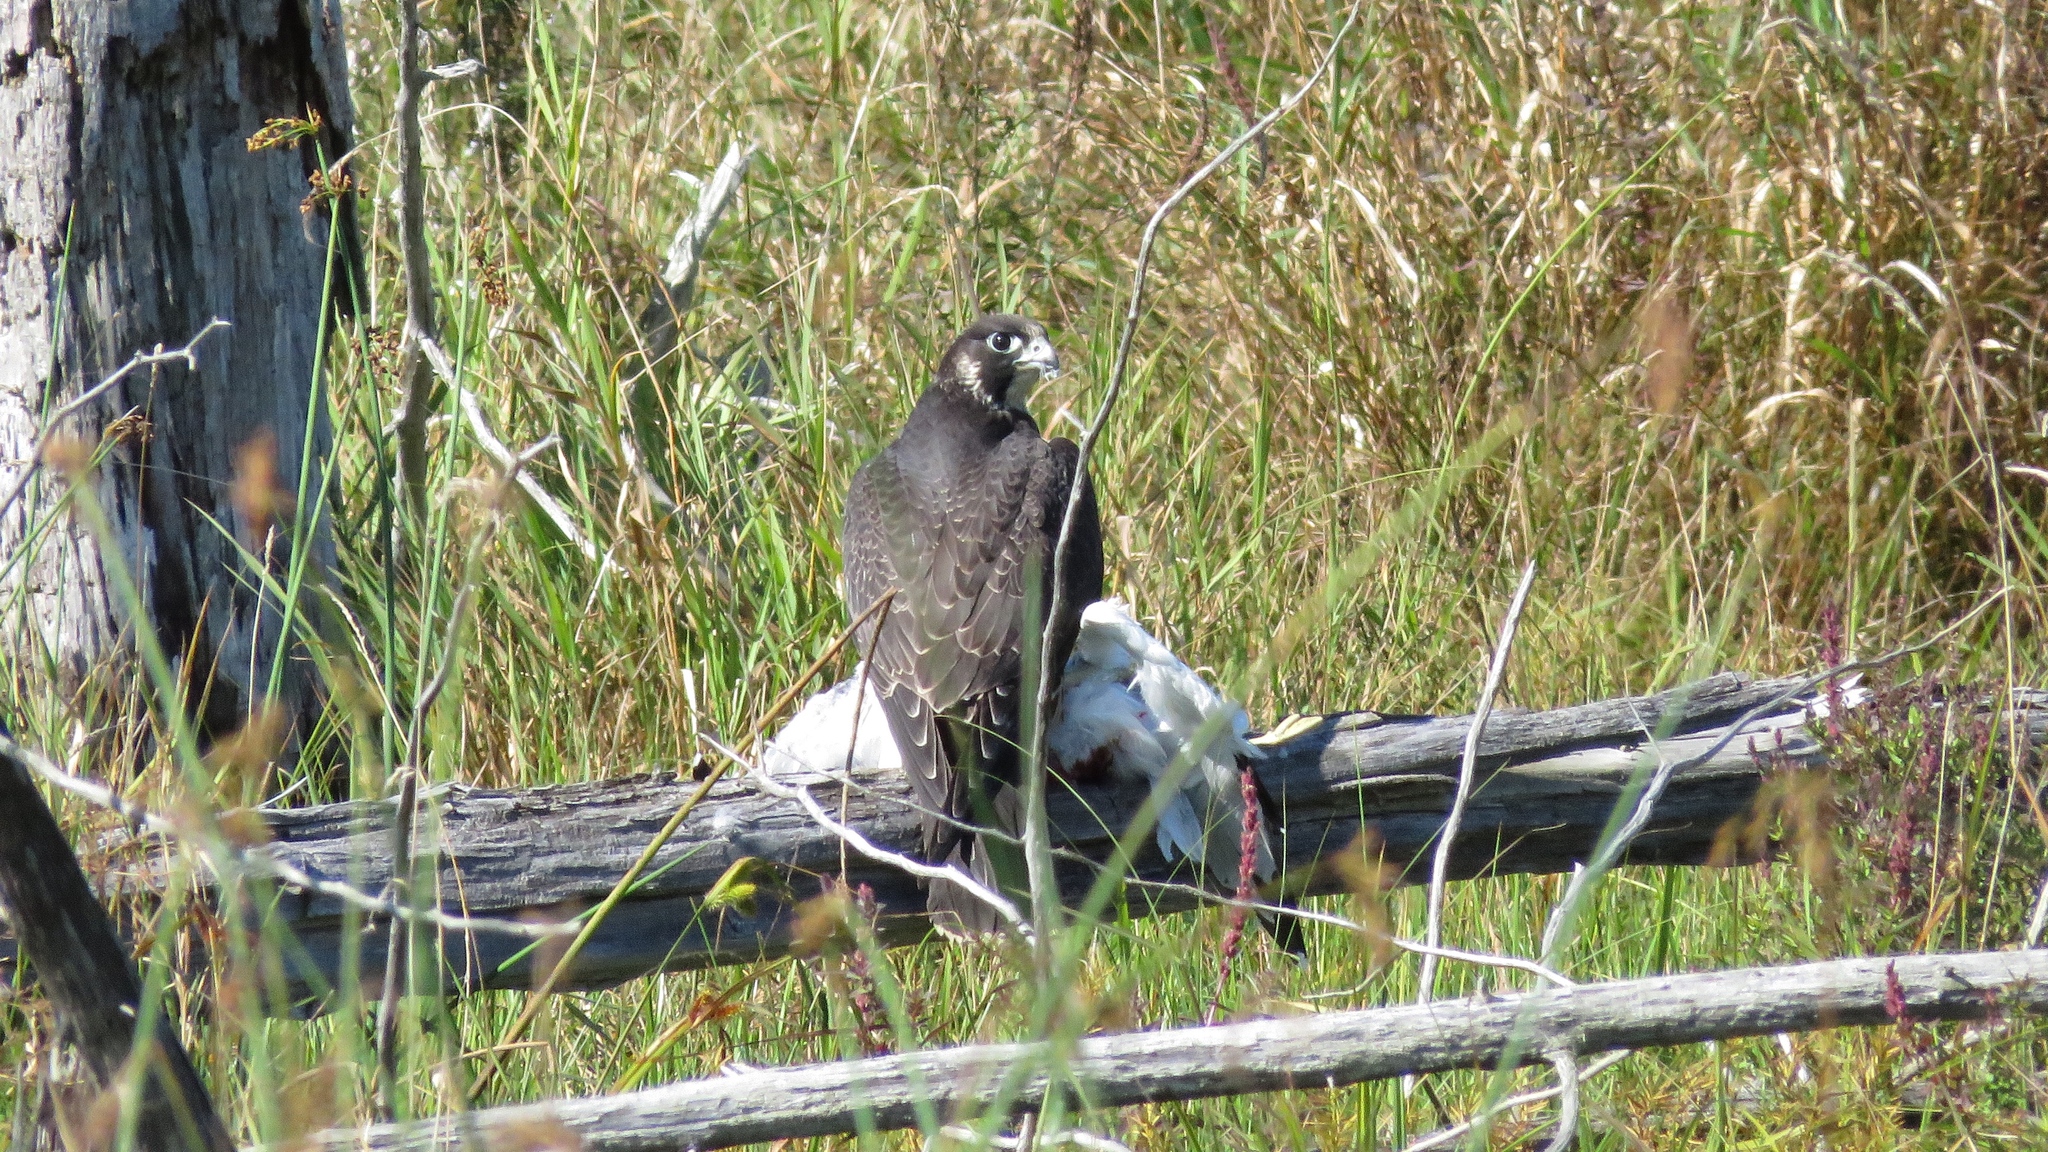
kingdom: Animalia
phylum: Chordata
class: Aves
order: Falconiformes
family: Falconidae
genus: Falco
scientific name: Falco peregrinus
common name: Peregrine falcon
